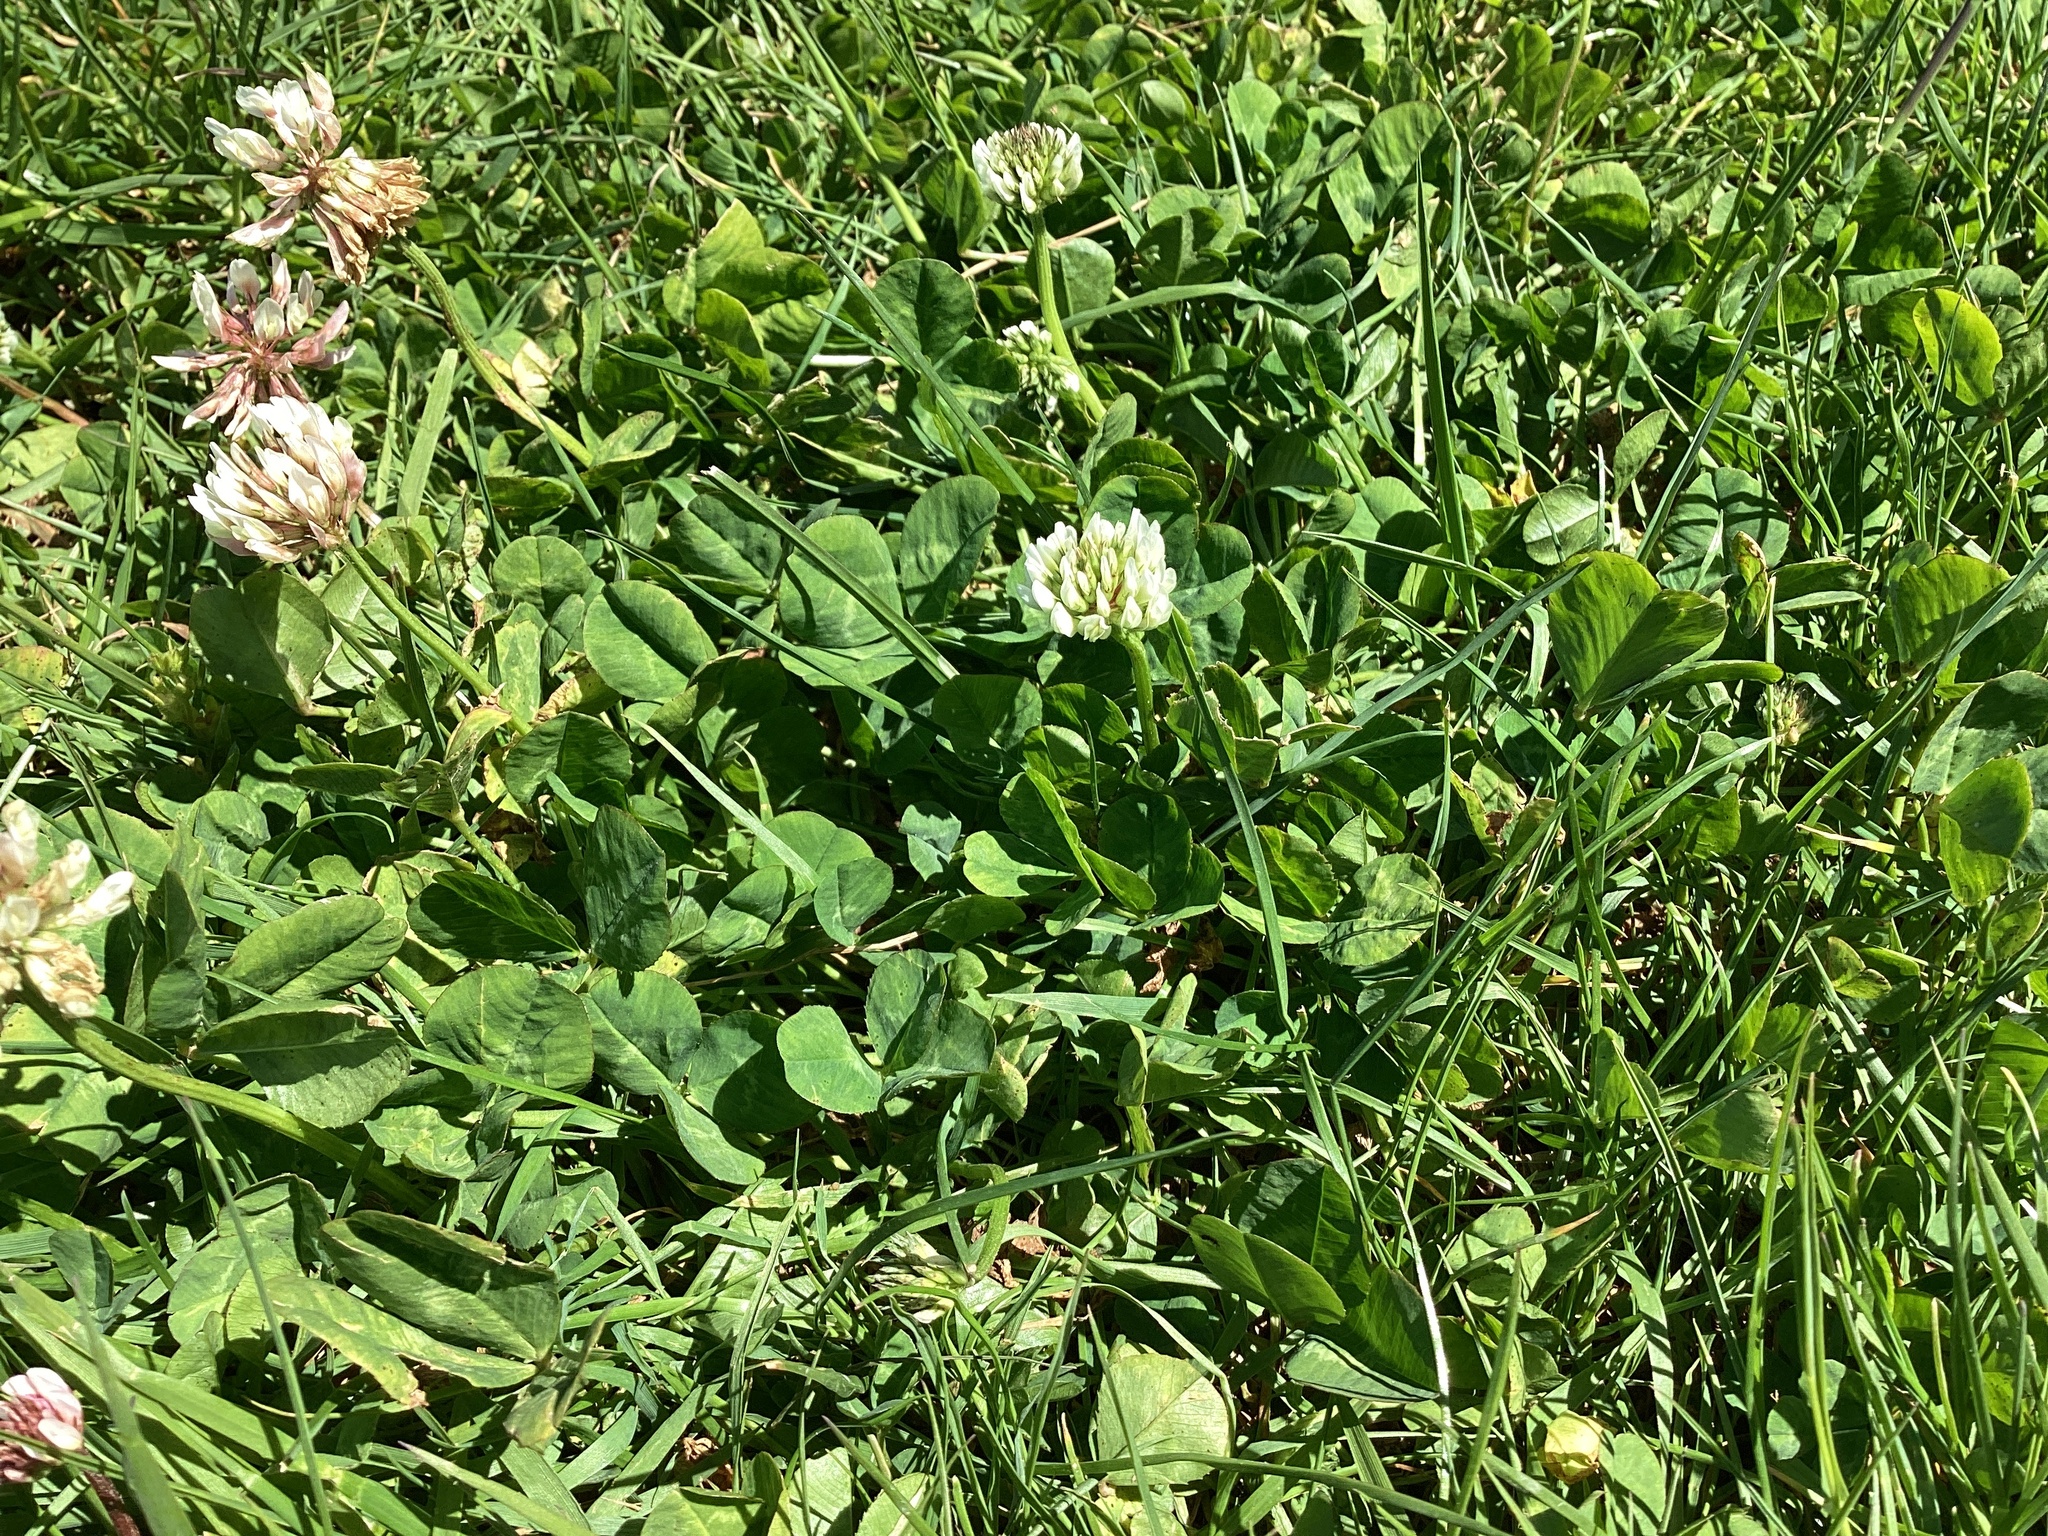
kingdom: Plantae
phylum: Tracheophyta
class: Magnoliopsida
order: Fabales
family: Fabaceae
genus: Trifolium
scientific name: Trifolium repens
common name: White clover
